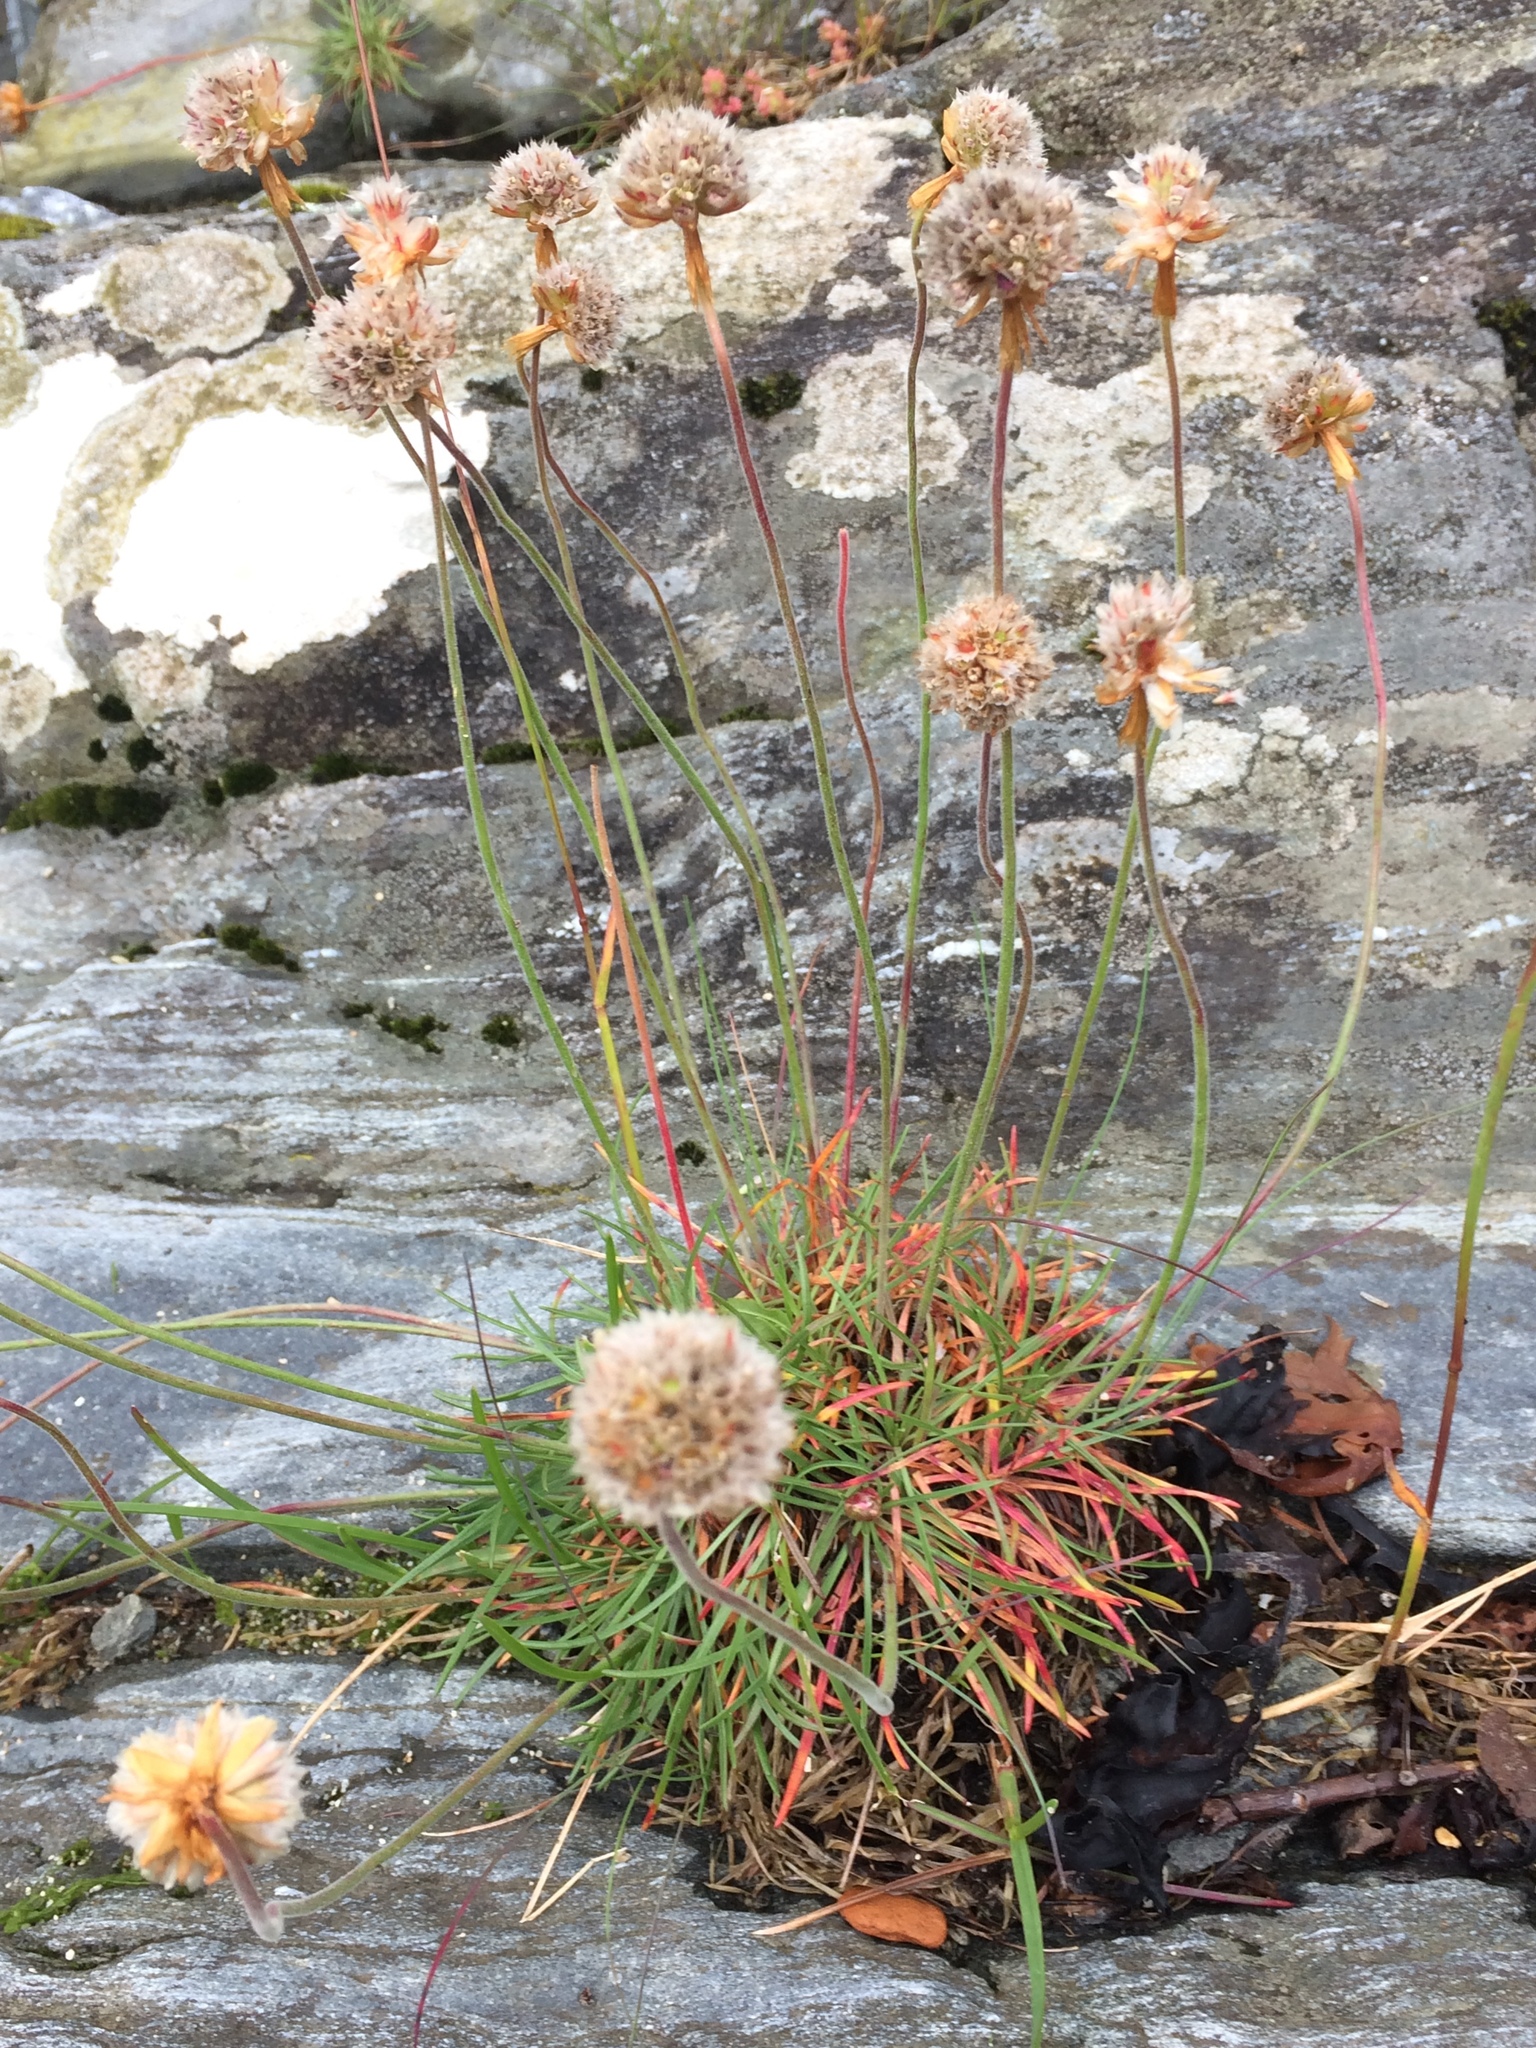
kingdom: Plantae
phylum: Tracheophyta
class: Magnoliopsida
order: Caryophyllales
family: Plumbaginaceae
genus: Armeria
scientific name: Armeria maritima
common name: Thrift
